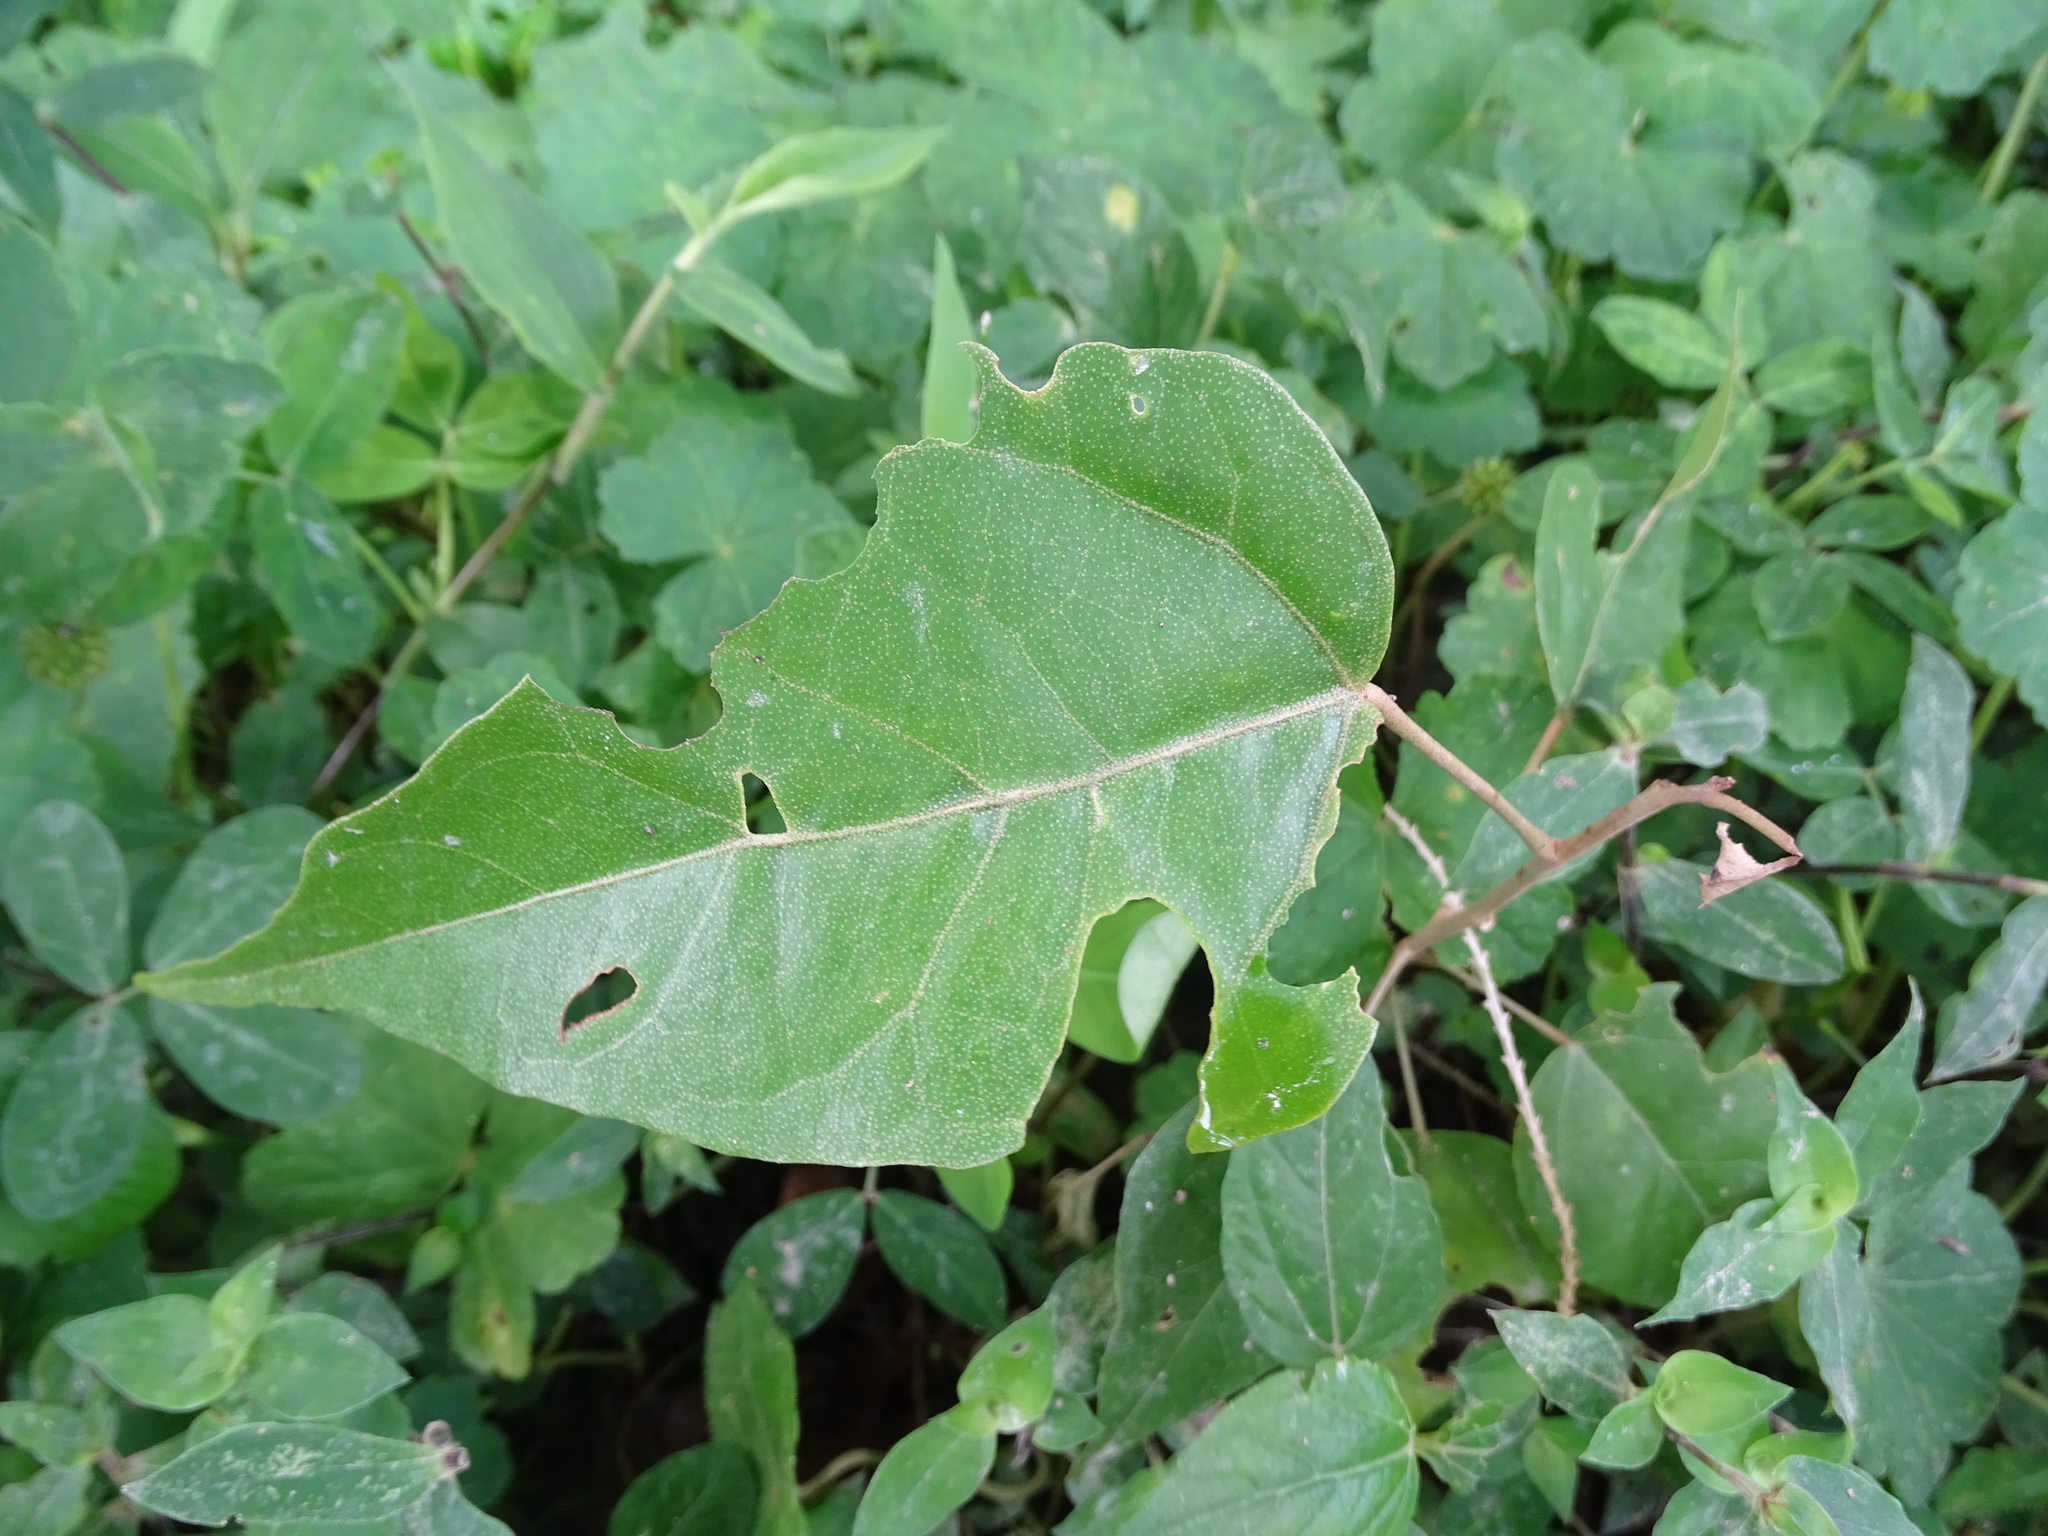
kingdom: Plantae
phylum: Tracheophyta
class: Magnoliopsida
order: Malpighiales
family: Euphorbiaceae
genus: Croton
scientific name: Croton draco
